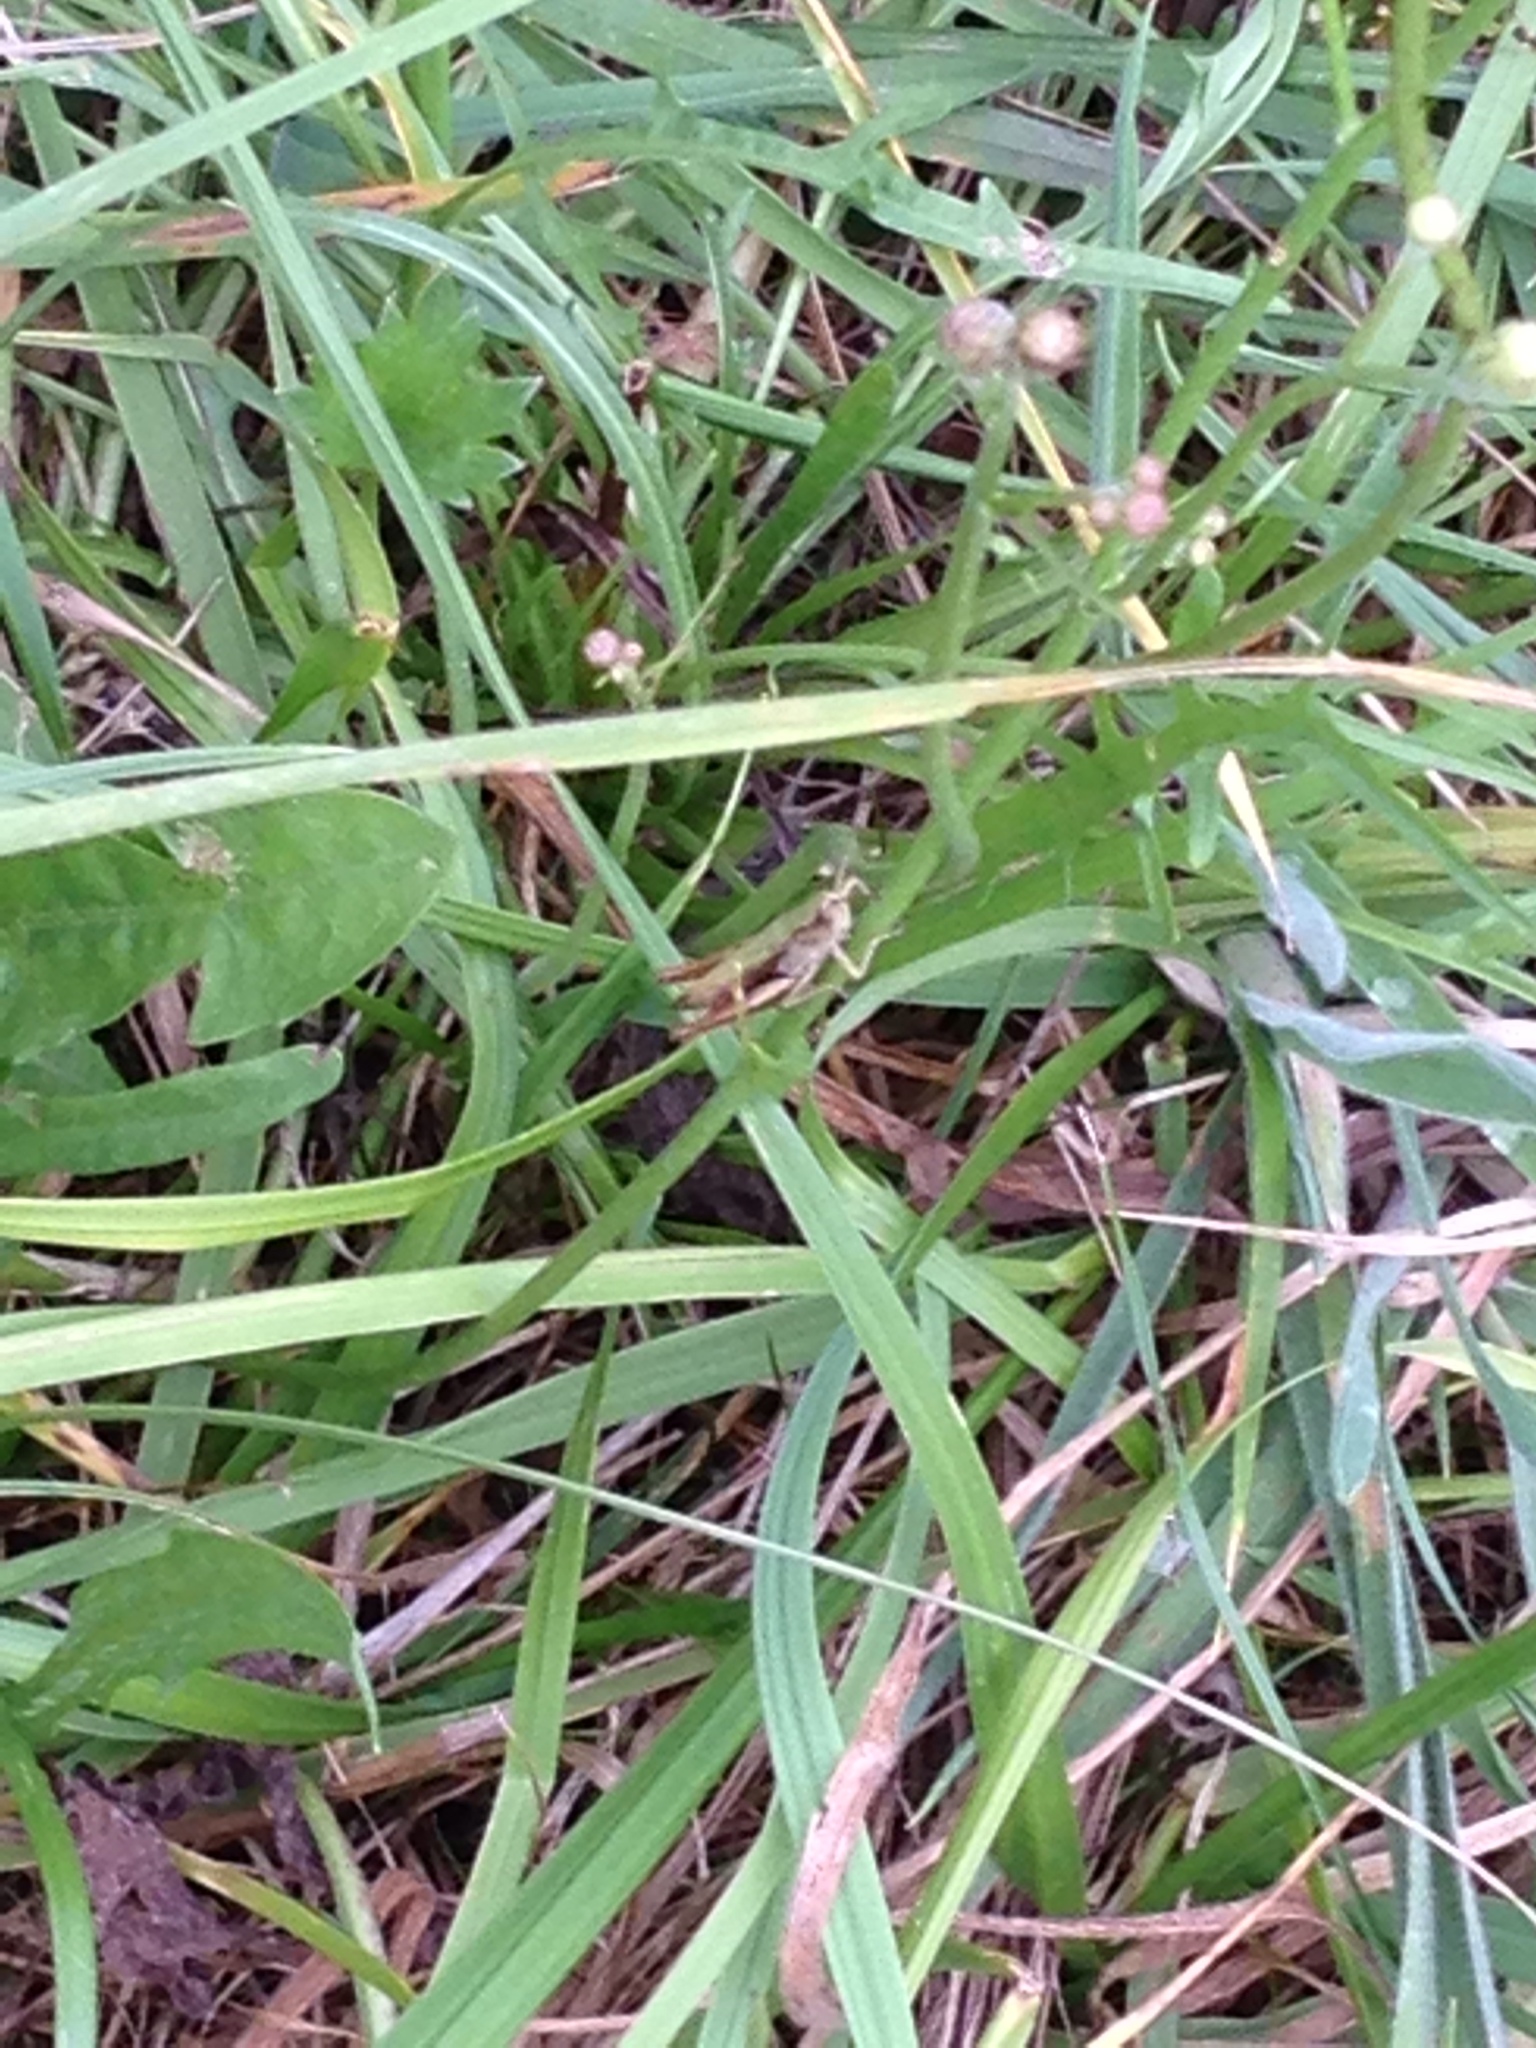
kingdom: Animalia
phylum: Arthropoda
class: Insecta
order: Orthoptera
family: Acrididae
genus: Chorthippus
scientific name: Chorthippus dorsatus
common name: Steppe grasshopper
